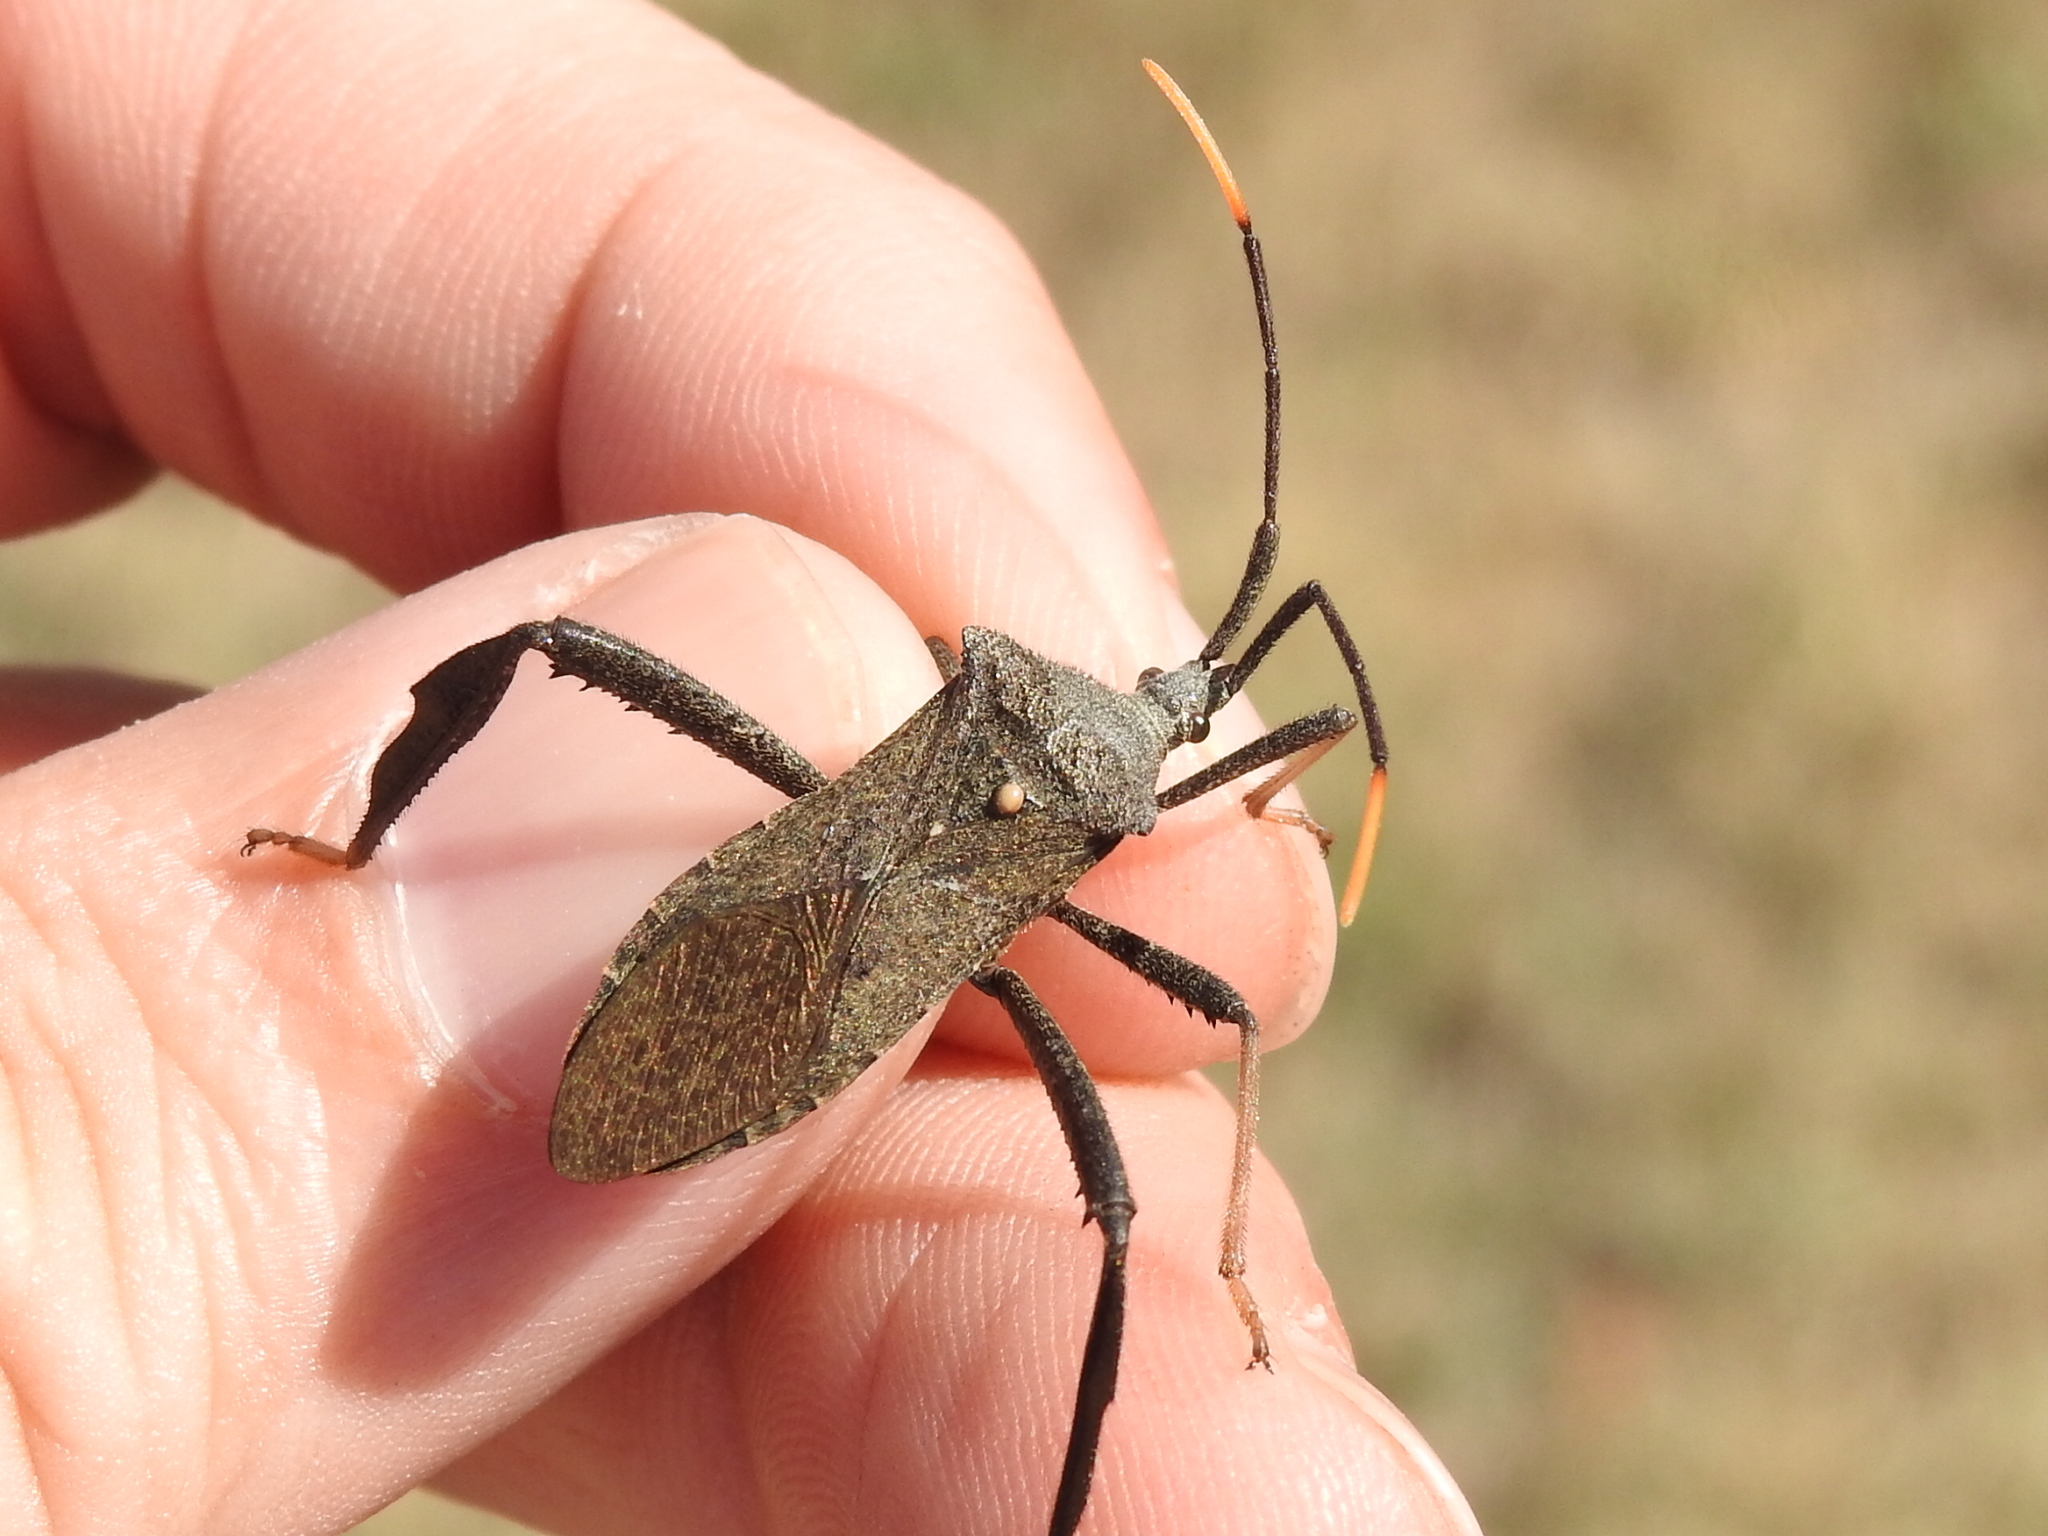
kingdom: Animalia
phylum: Arthropoda
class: Insecta
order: Hemiptera
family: Coreidae
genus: Acanthocephala
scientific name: Acanthocephala terminalis
